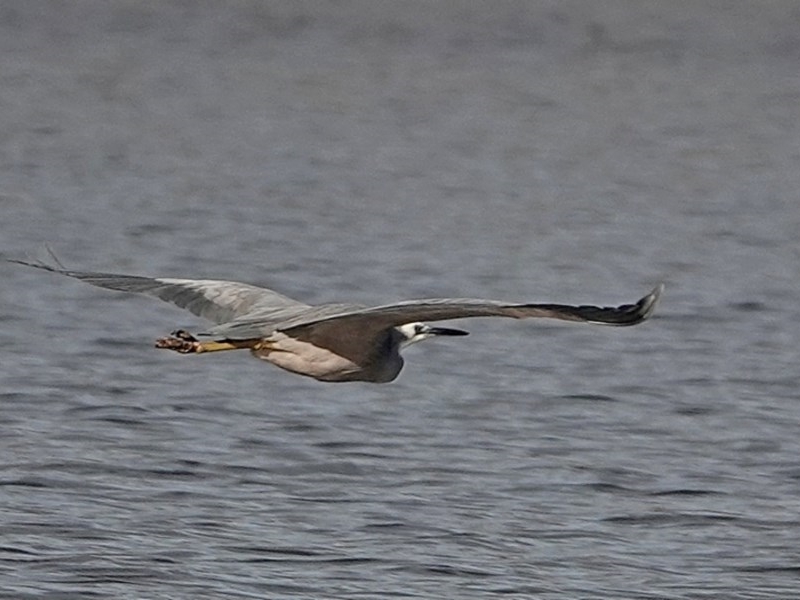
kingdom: Animalia
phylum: Chordata
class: Aves
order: Pelecaniformes
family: Ardeidae
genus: Egretta
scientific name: Egretta novaehollandiae
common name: White-faced heron
